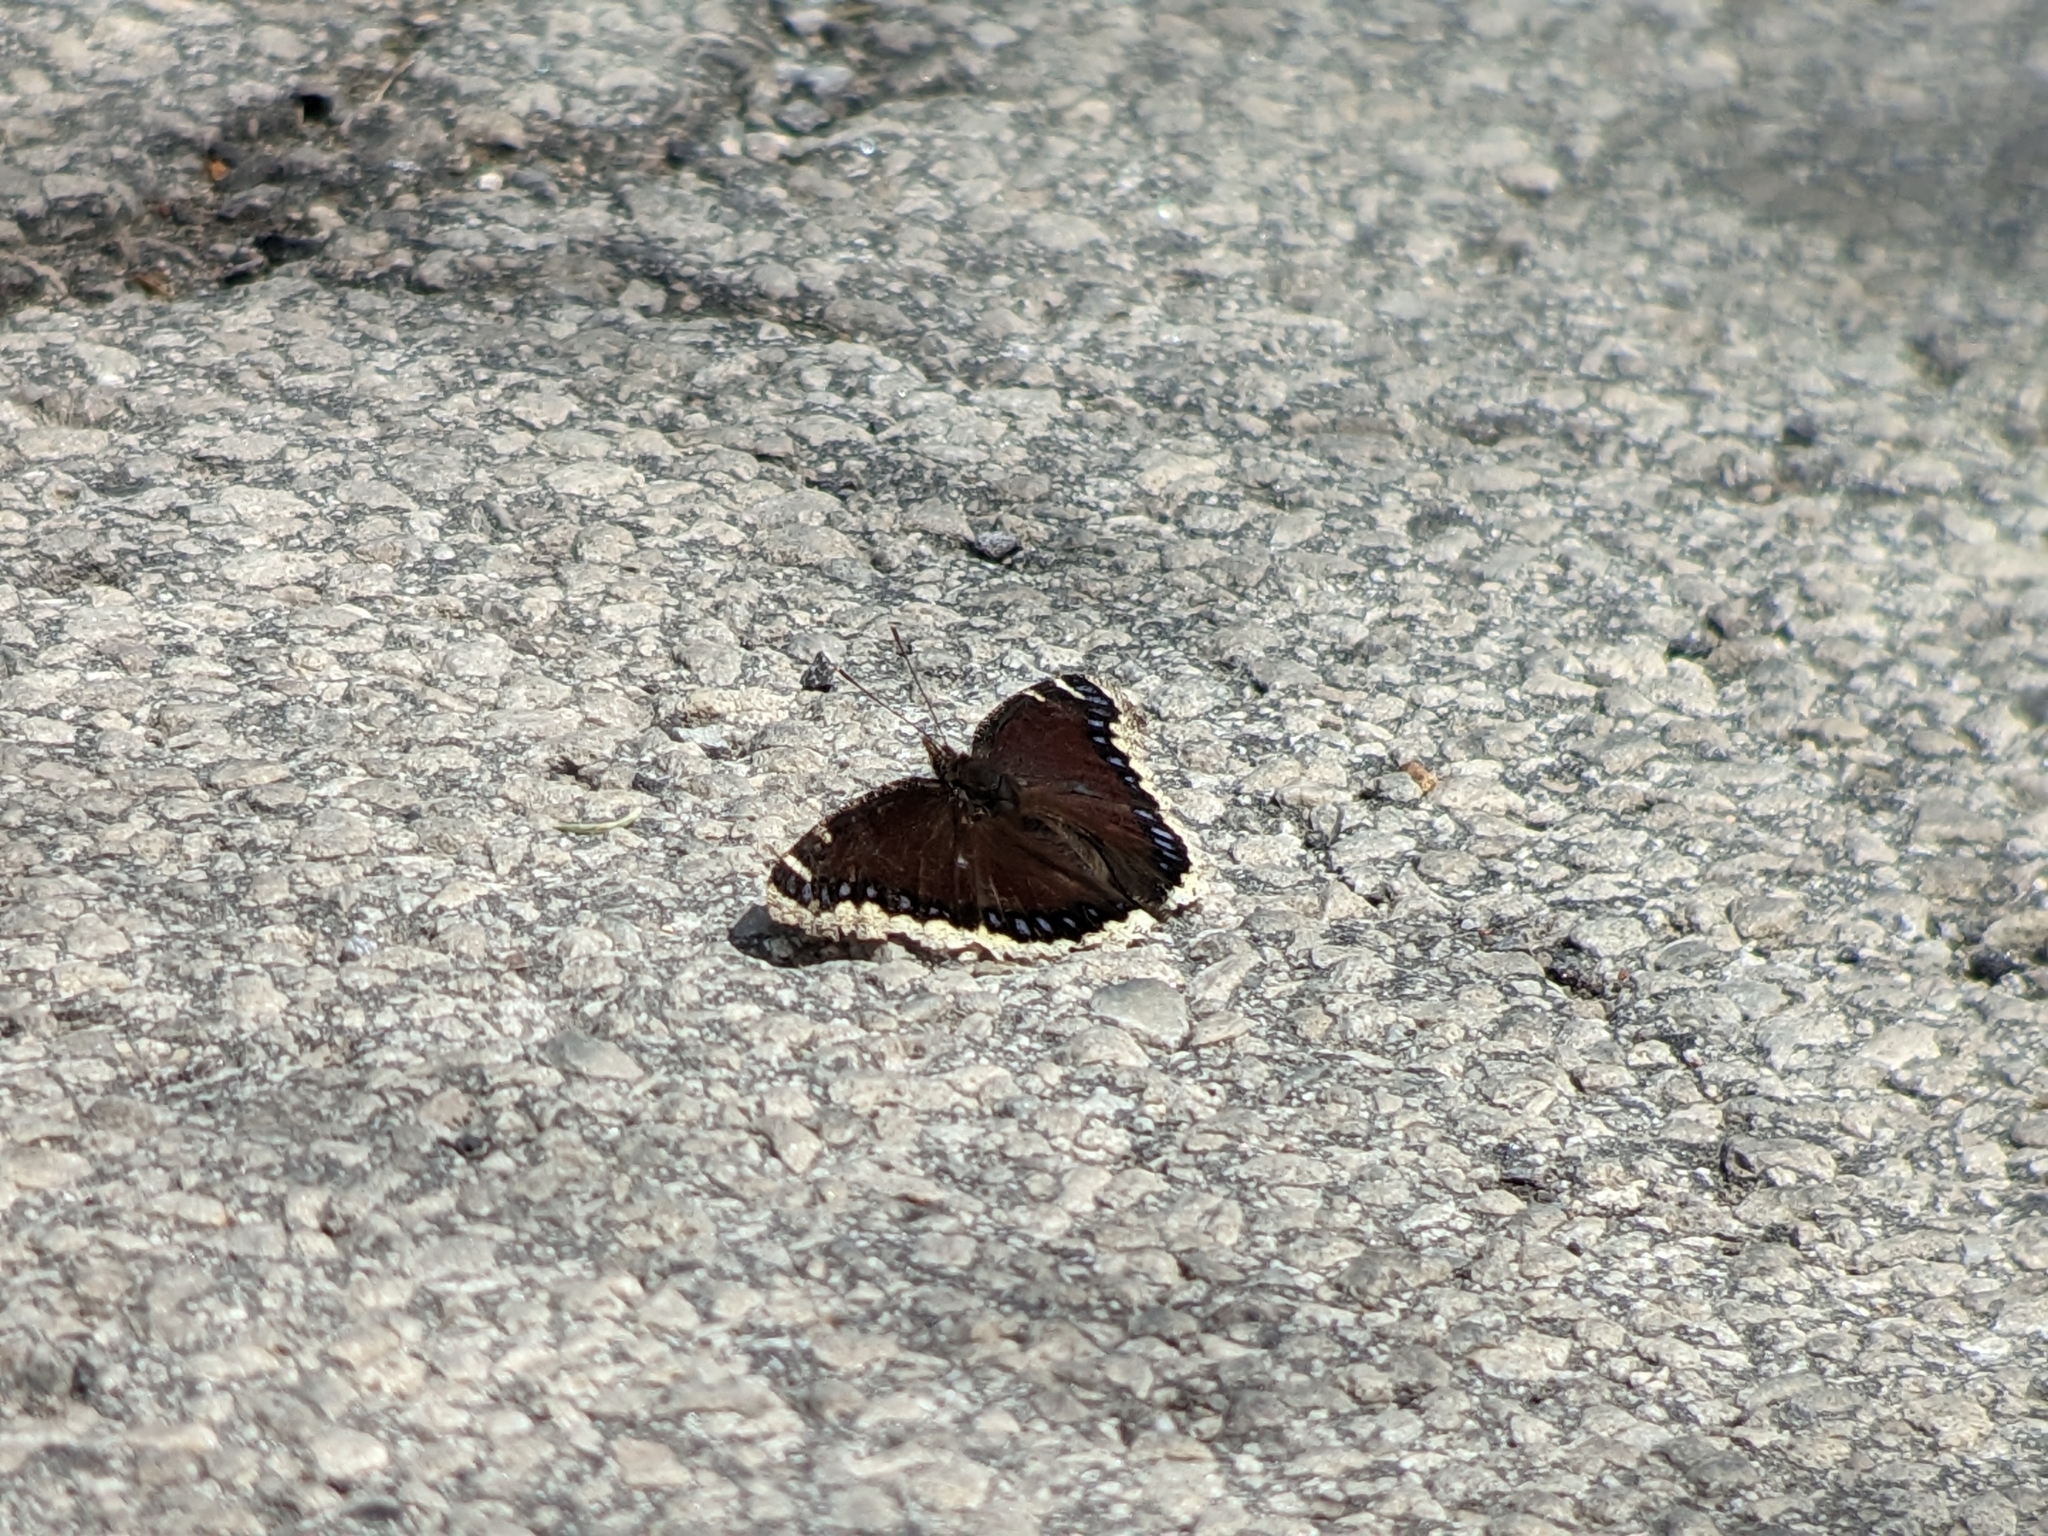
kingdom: Animalia
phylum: Arthropoda
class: Insecta
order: Lepidoptera
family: Nymphalidae
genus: Nymphalis
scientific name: Nymphalis antiopa
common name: Camberwell beauty
